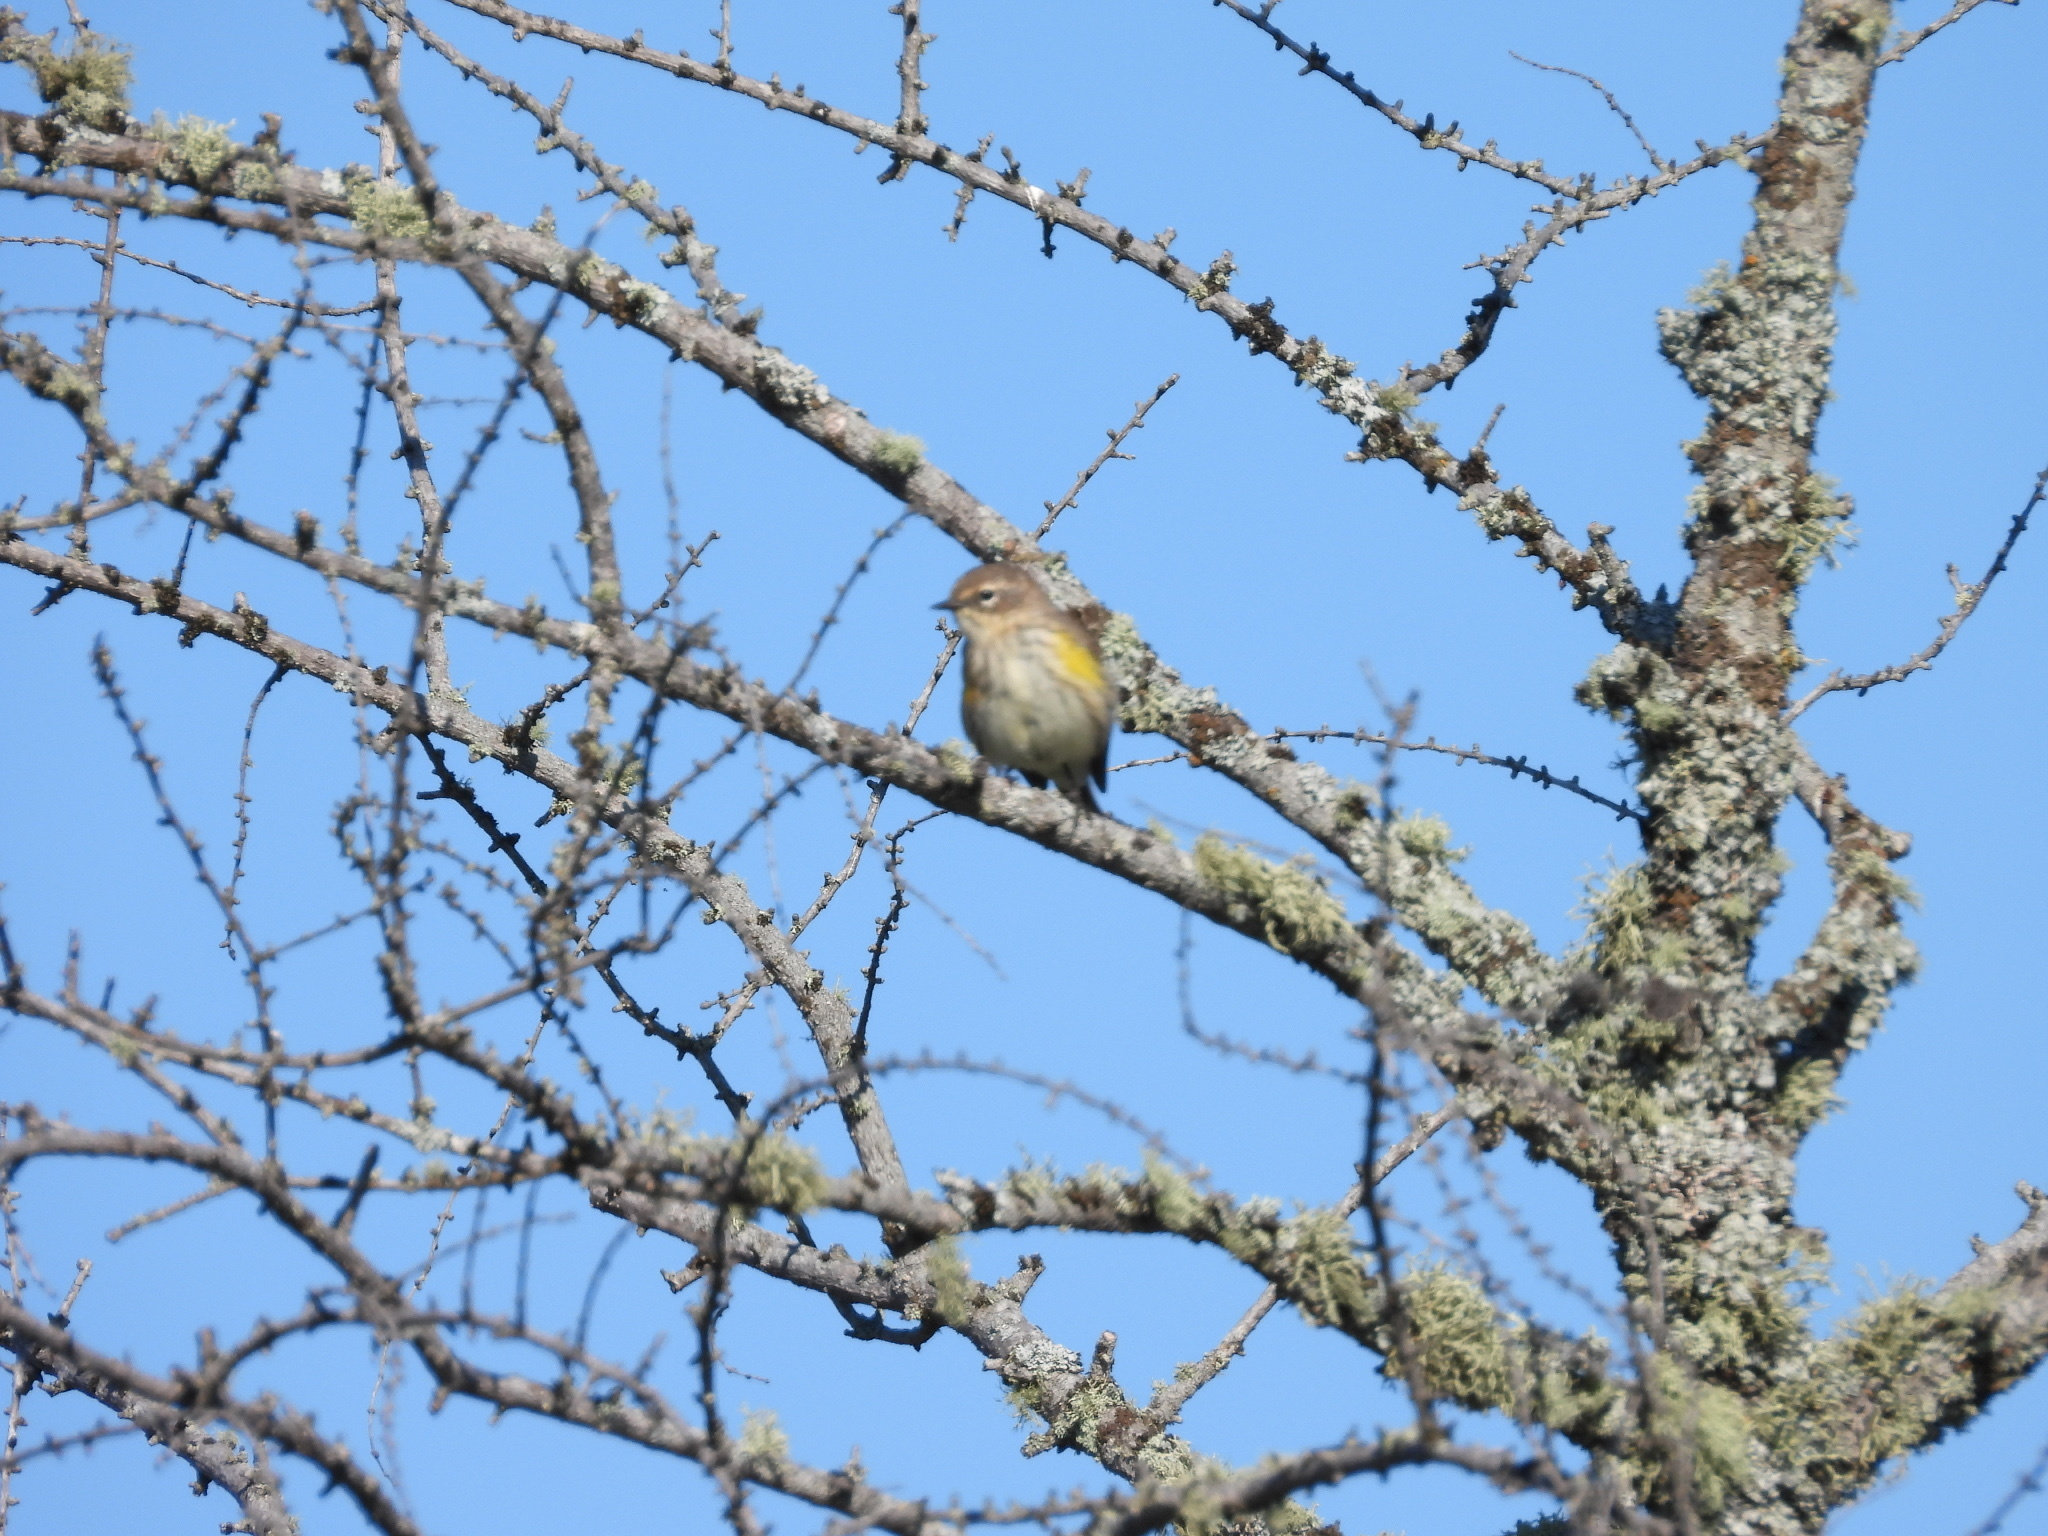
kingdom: Animalia
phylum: Chordata
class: Aves
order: Passeriformes
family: Parulidae
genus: Setophaga
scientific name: Setophaga coronata
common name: Myrtle warbler
